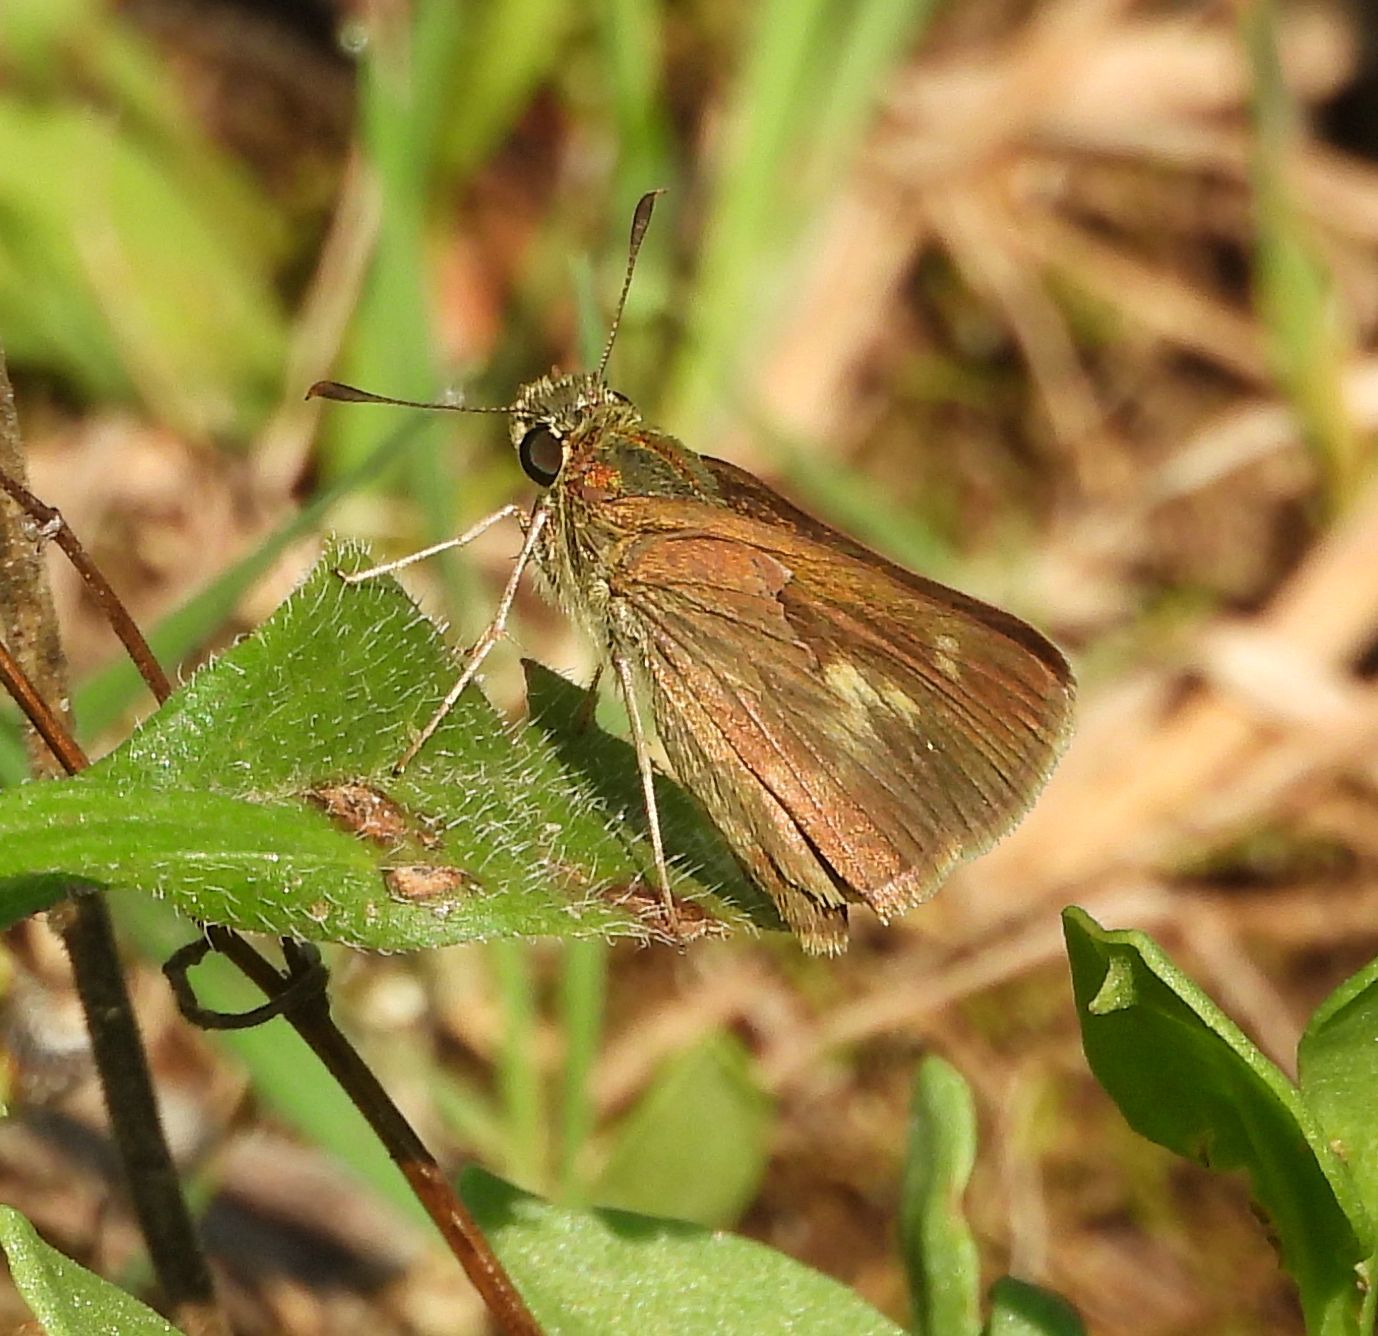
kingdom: Animalia
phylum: Arthropoda
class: Insecta
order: Lepidoptera
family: Hesperiidae
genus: Polites
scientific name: Polites egeremet
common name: Northern broken-dash
